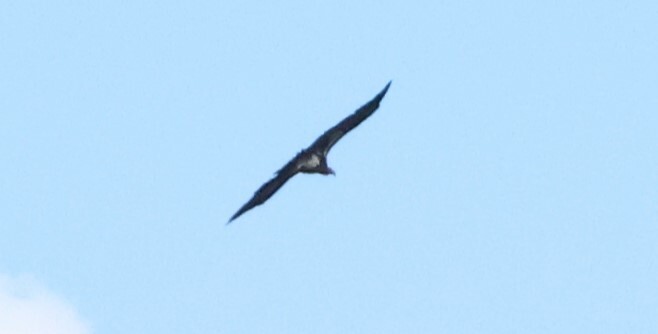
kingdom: Animalia
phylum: Chordata
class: Aves
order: Accipitriformes
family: Accipitridae
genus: Torgos
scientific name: Torgos tracheliotos
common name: Lappet-faced vulture
